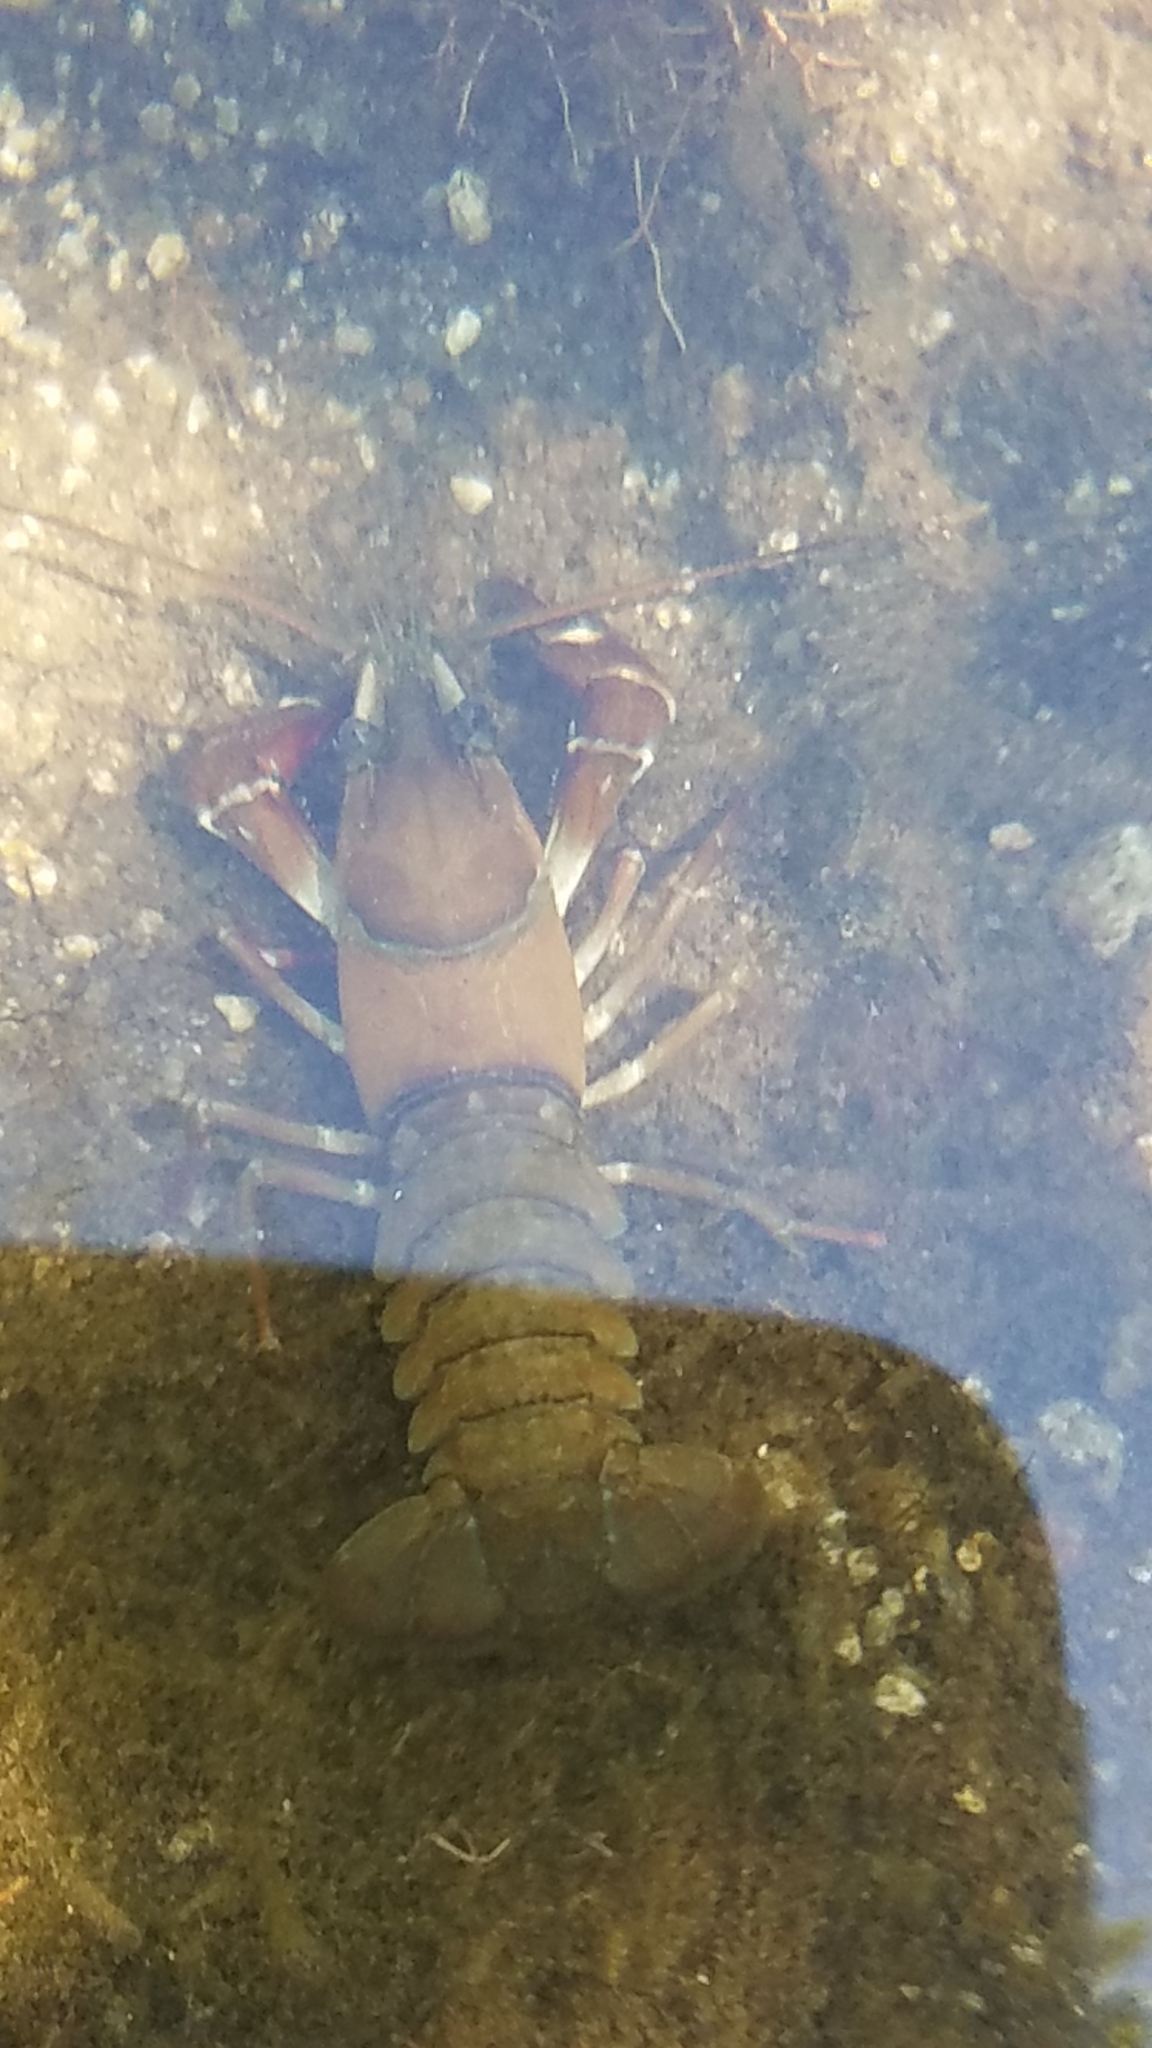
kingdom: Animalia
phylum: Arthropoda
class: Malacostraca
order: Decapoda
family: Astacidae
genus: Pacifastacus
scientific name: Pacifastacus leniusculus
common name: Signal crayfish
